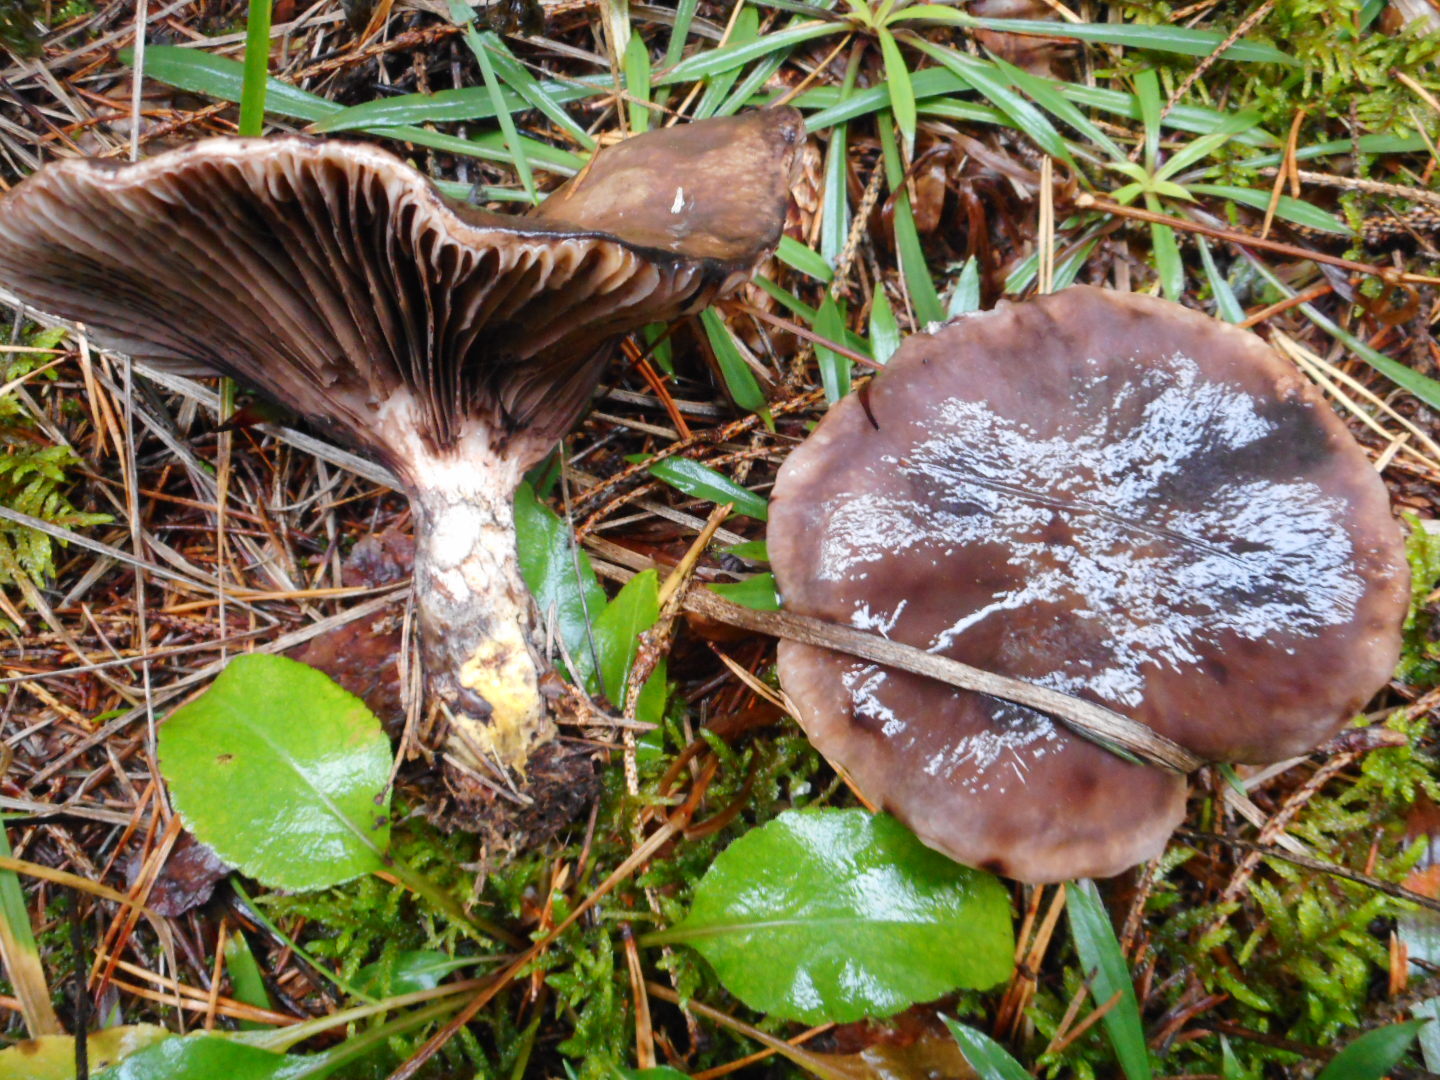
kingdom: Fungi
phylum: Basidiomycota
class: Agaricomycetes
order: Boletales
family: Gomphidiaceae
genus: Gomphidius
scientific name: Gomphidius glutinosus
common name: Slimy spike
